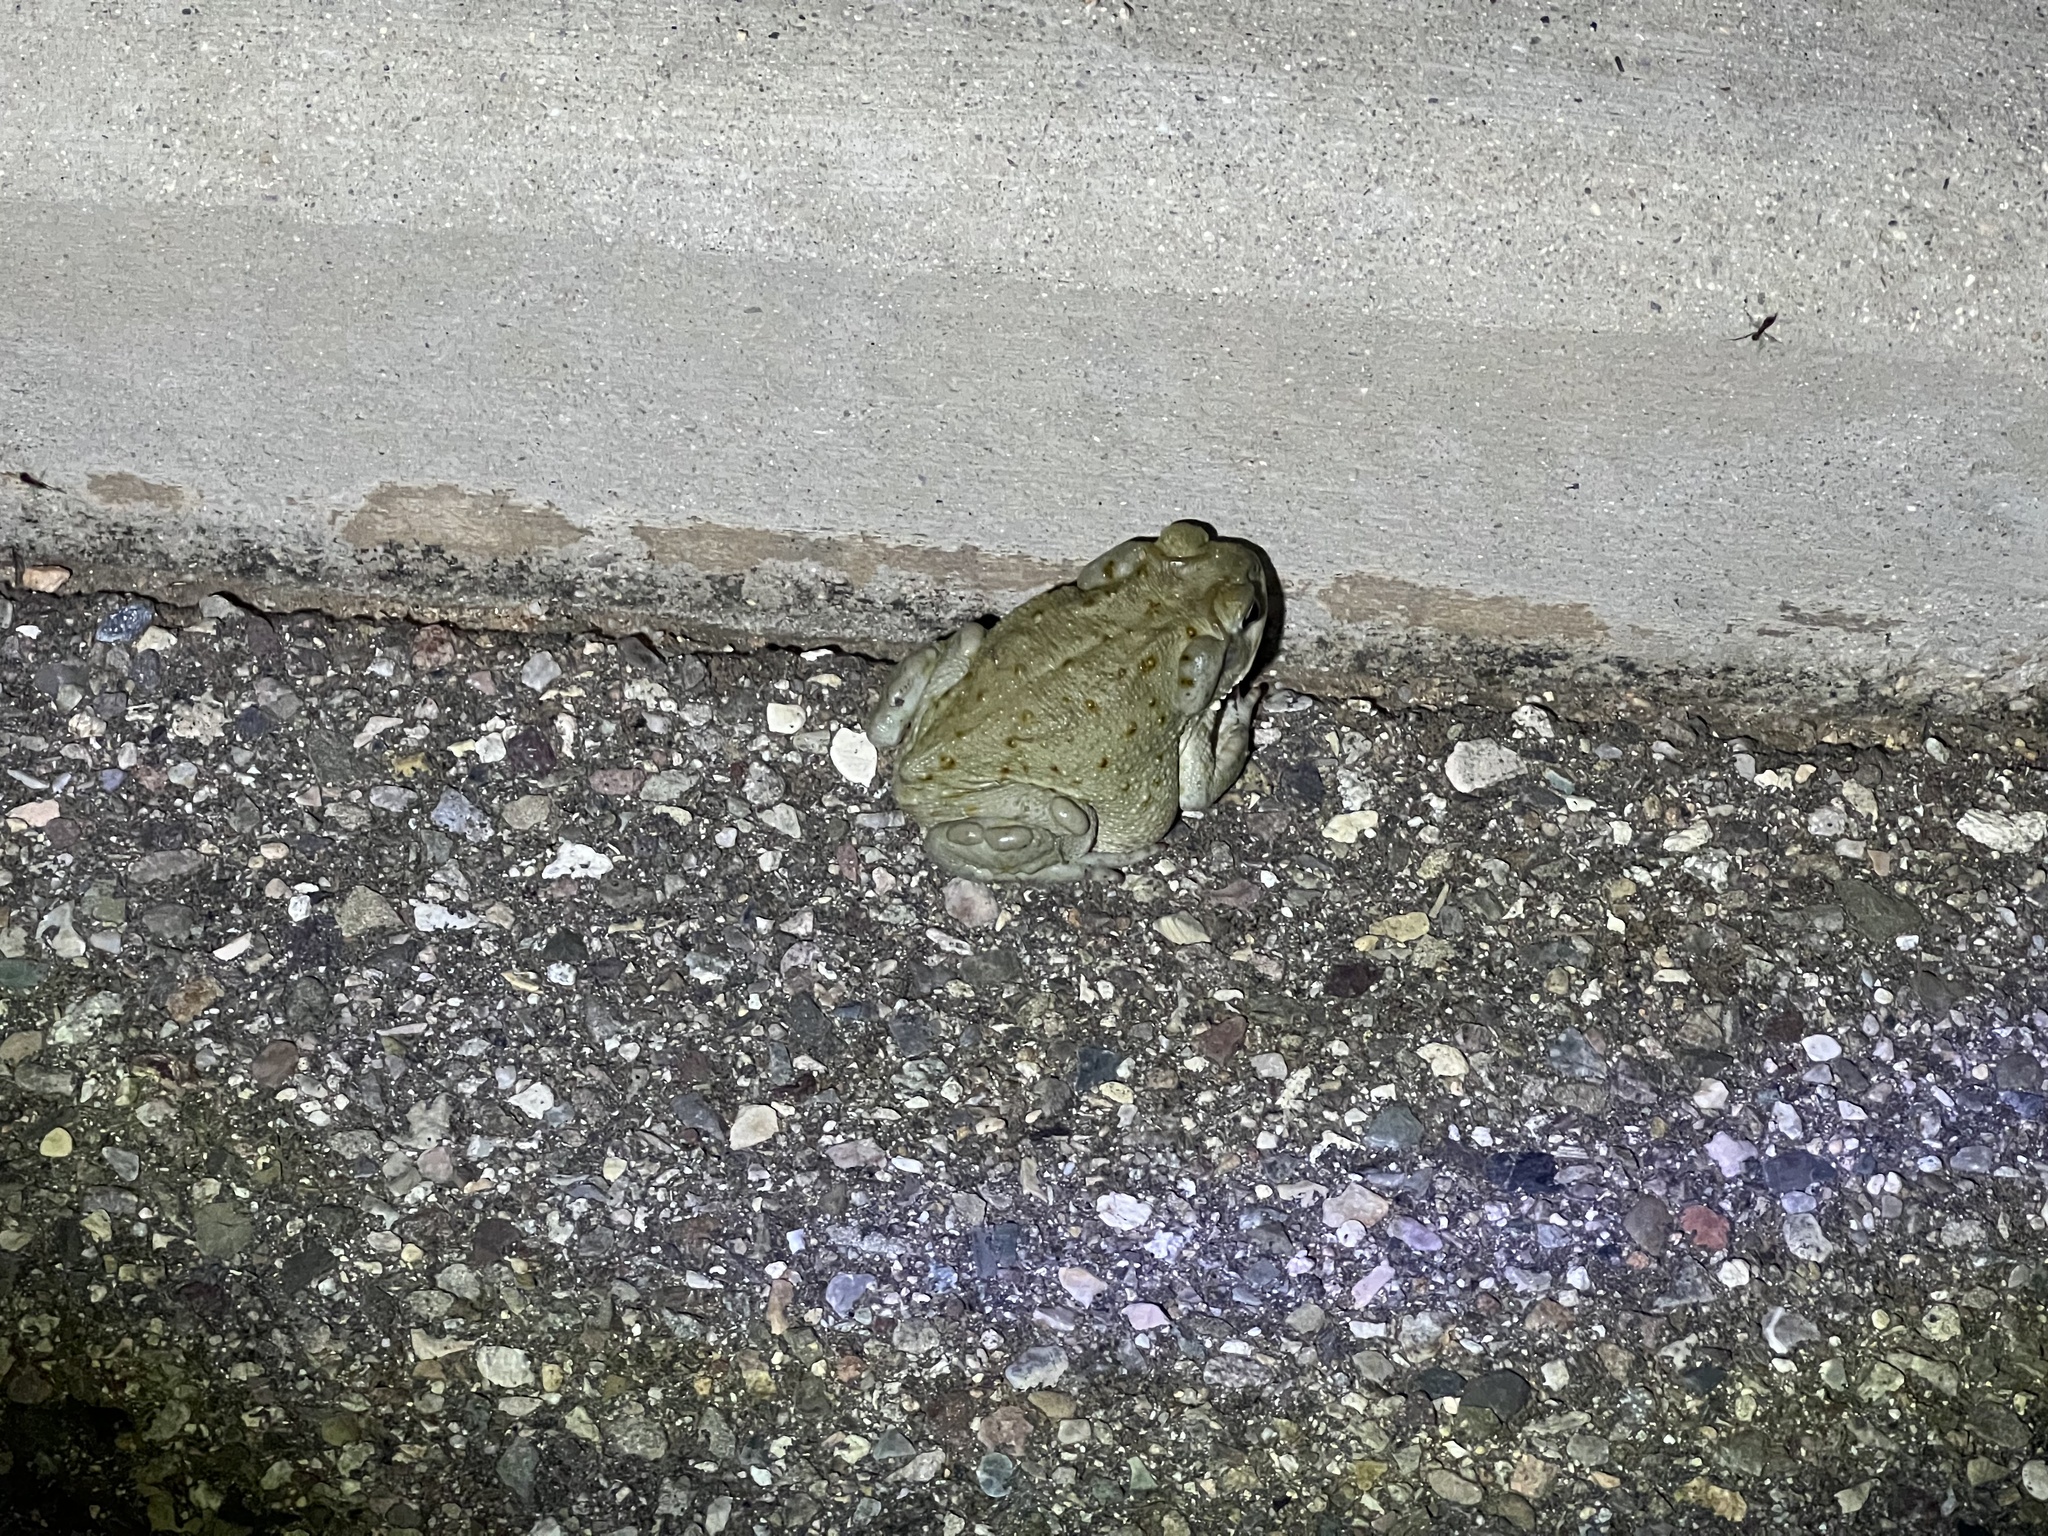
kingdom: Animalia
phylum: Chordata
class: Amphibia
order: Anura
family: Bufonidae
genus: Incilius
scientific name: Incilius alvarius
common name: Sonoran desert toad
